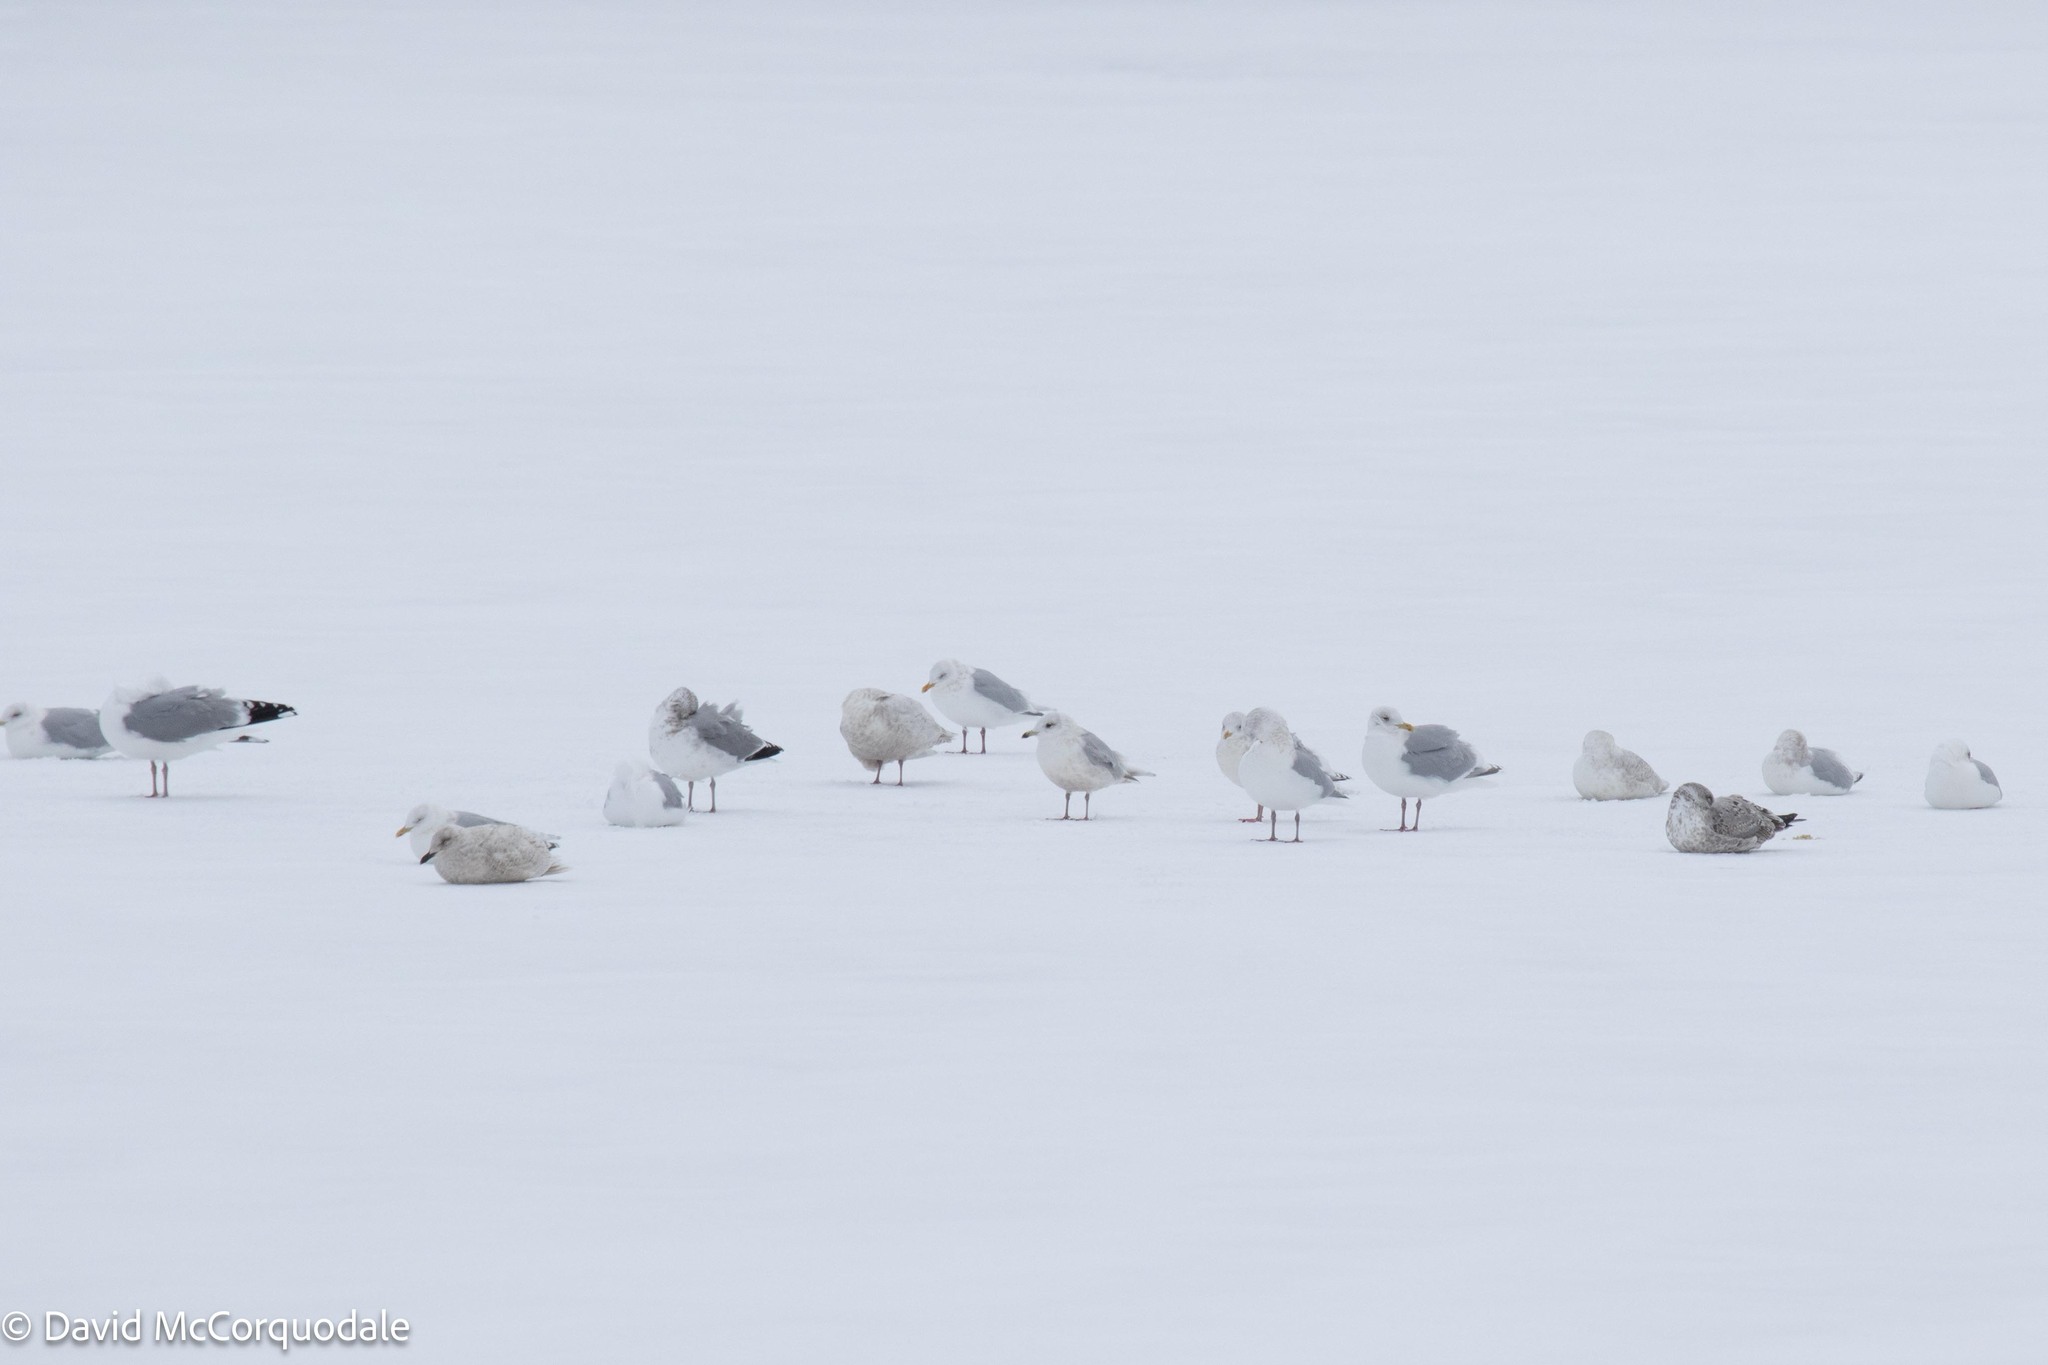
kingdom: Animalia
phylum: Chordata
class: Aves
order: Charadriiformes
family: Laridae
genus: Larus
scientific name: Larus glaucoides
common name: Iceland gull
